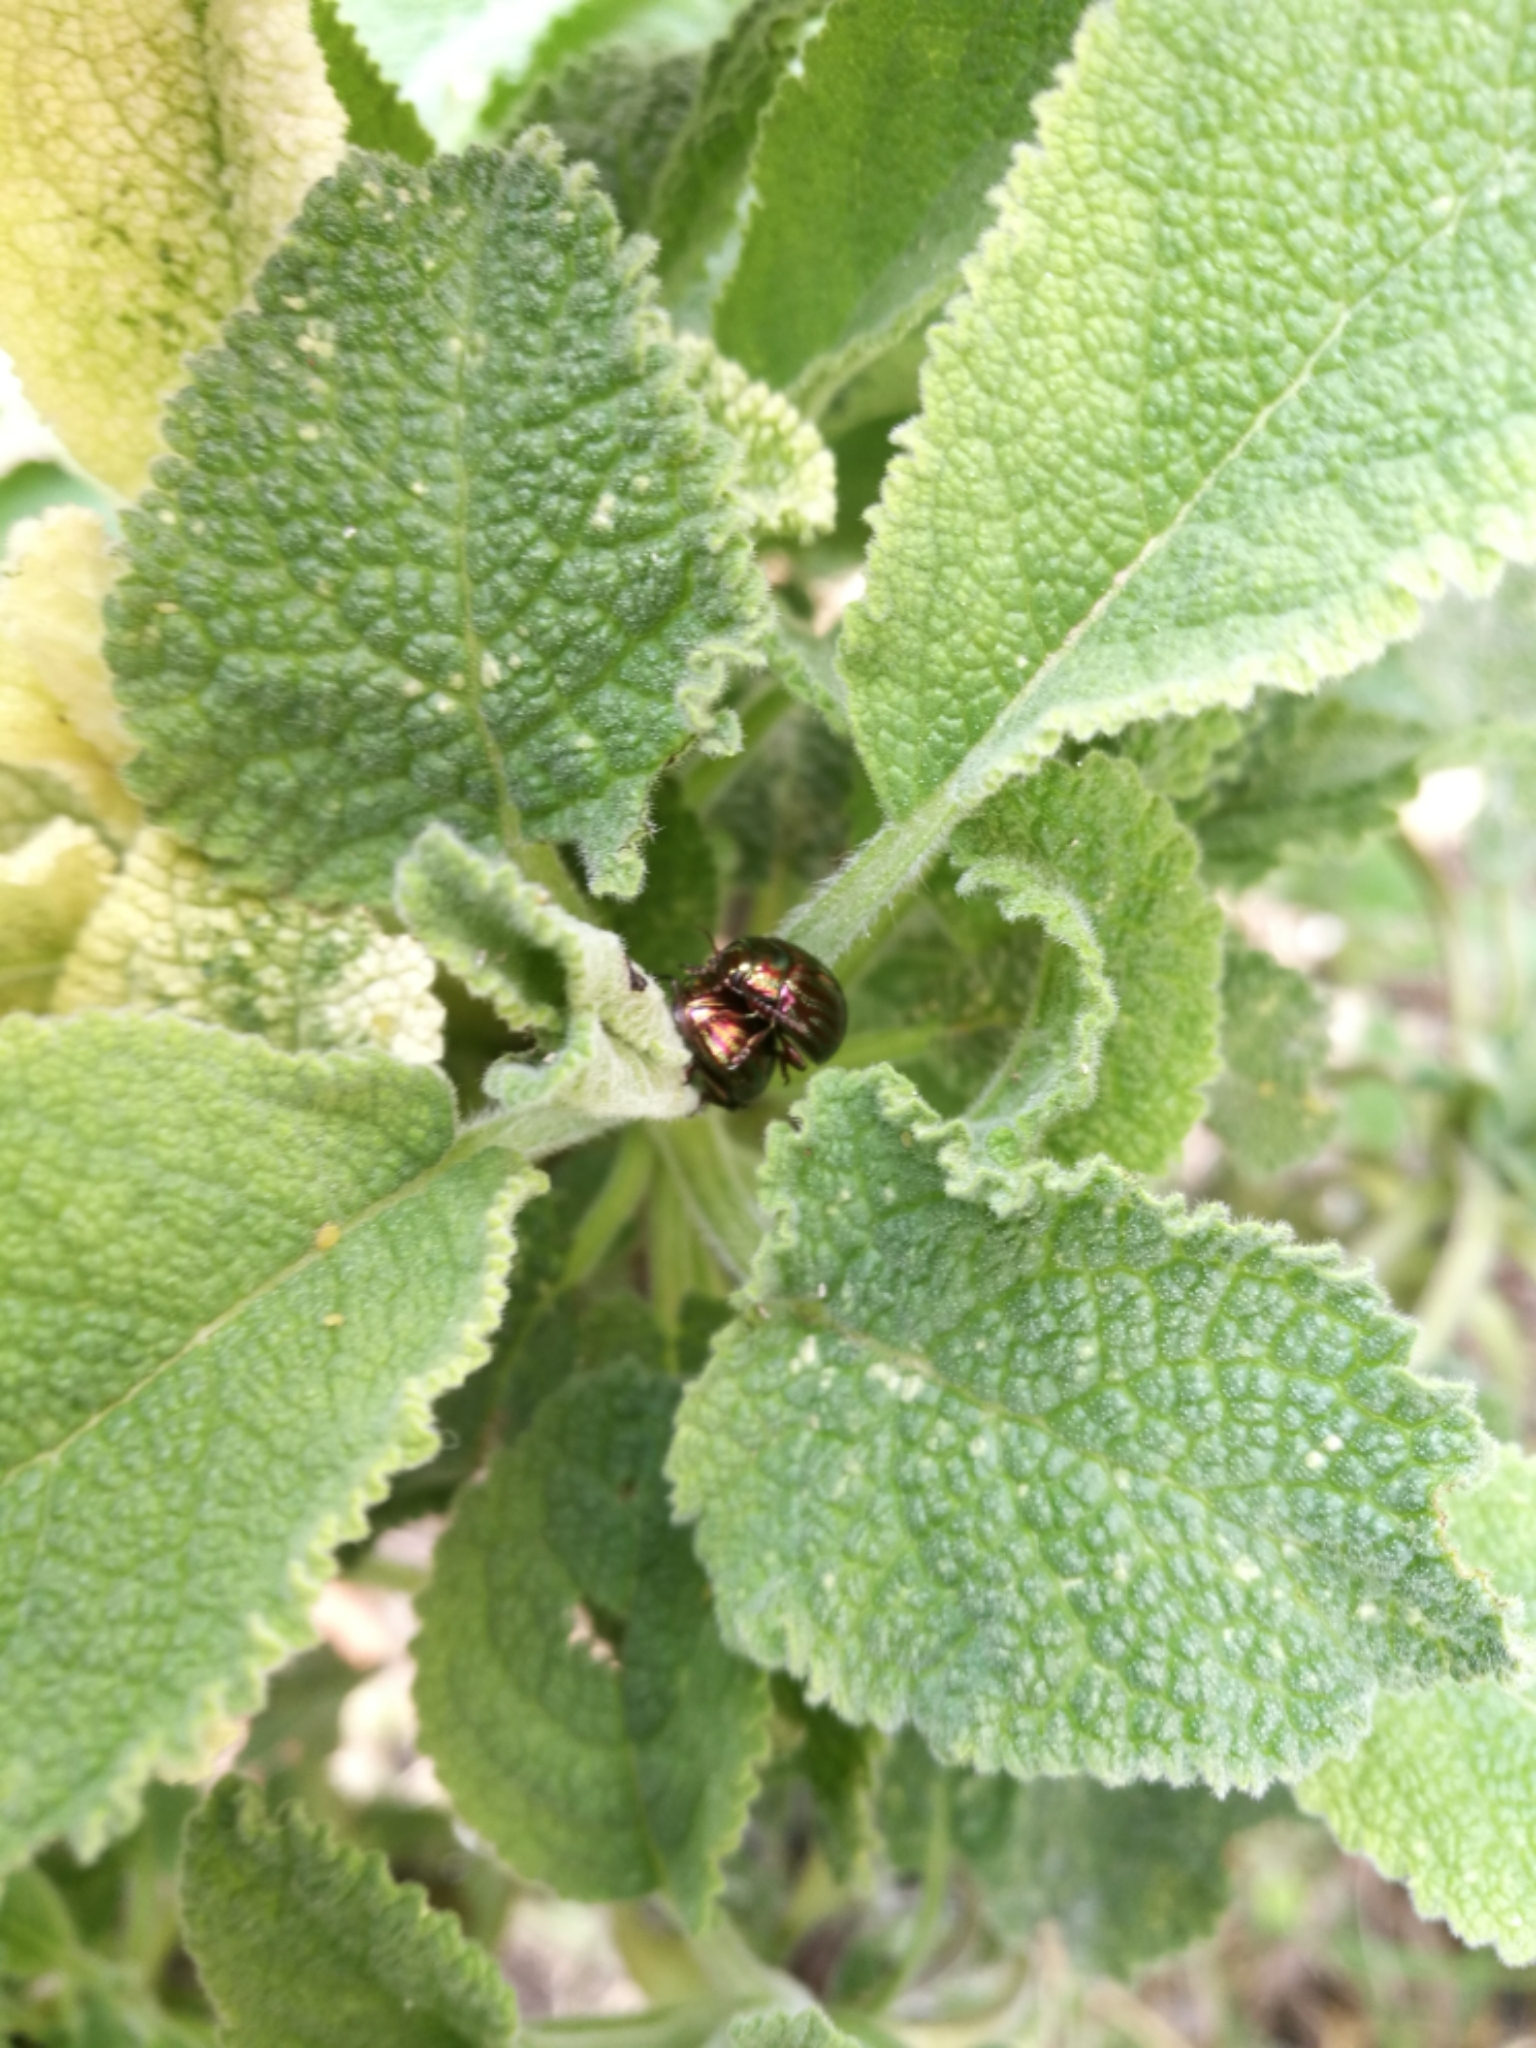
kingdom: Animalia
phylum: Arthropoda
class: Insecta
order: Coleoptera
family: Chrysomelidae
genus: Chrysolina
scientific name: Chrysolina americana
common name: Rosemary beetle
